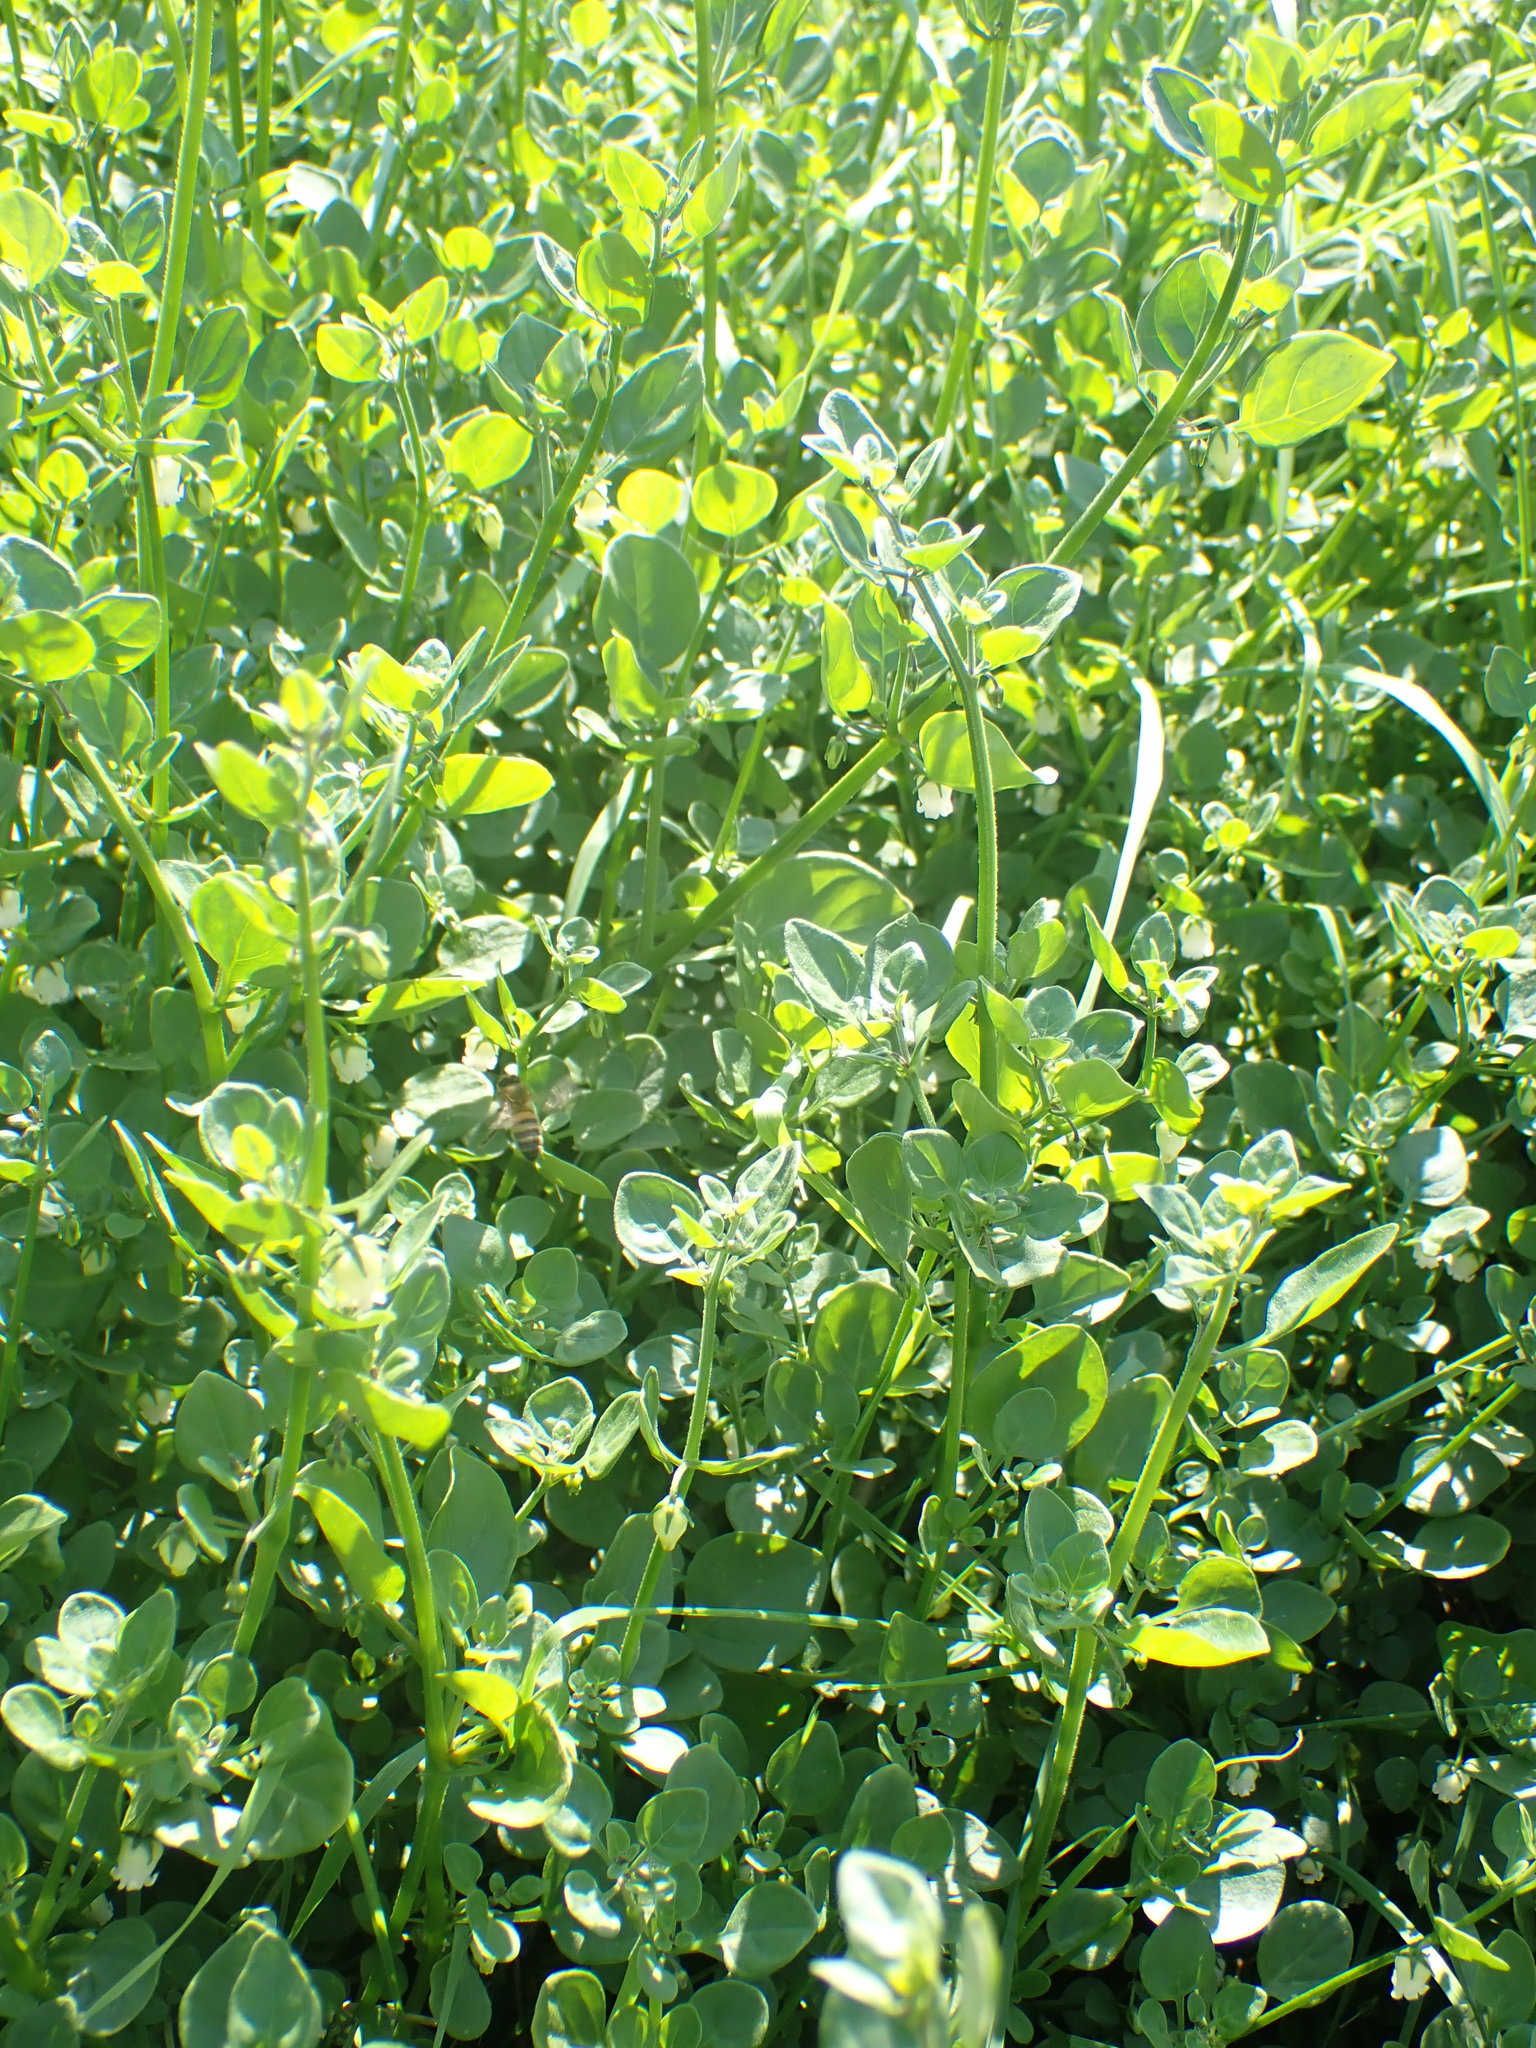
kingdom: Plantae
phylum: Tracheophyta
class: Magnoliopsida
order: Solanales
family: Solanaceae
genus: Salpichroa
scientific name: Salpichroa origanifolia
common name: Lily-of-the-valley-vine
